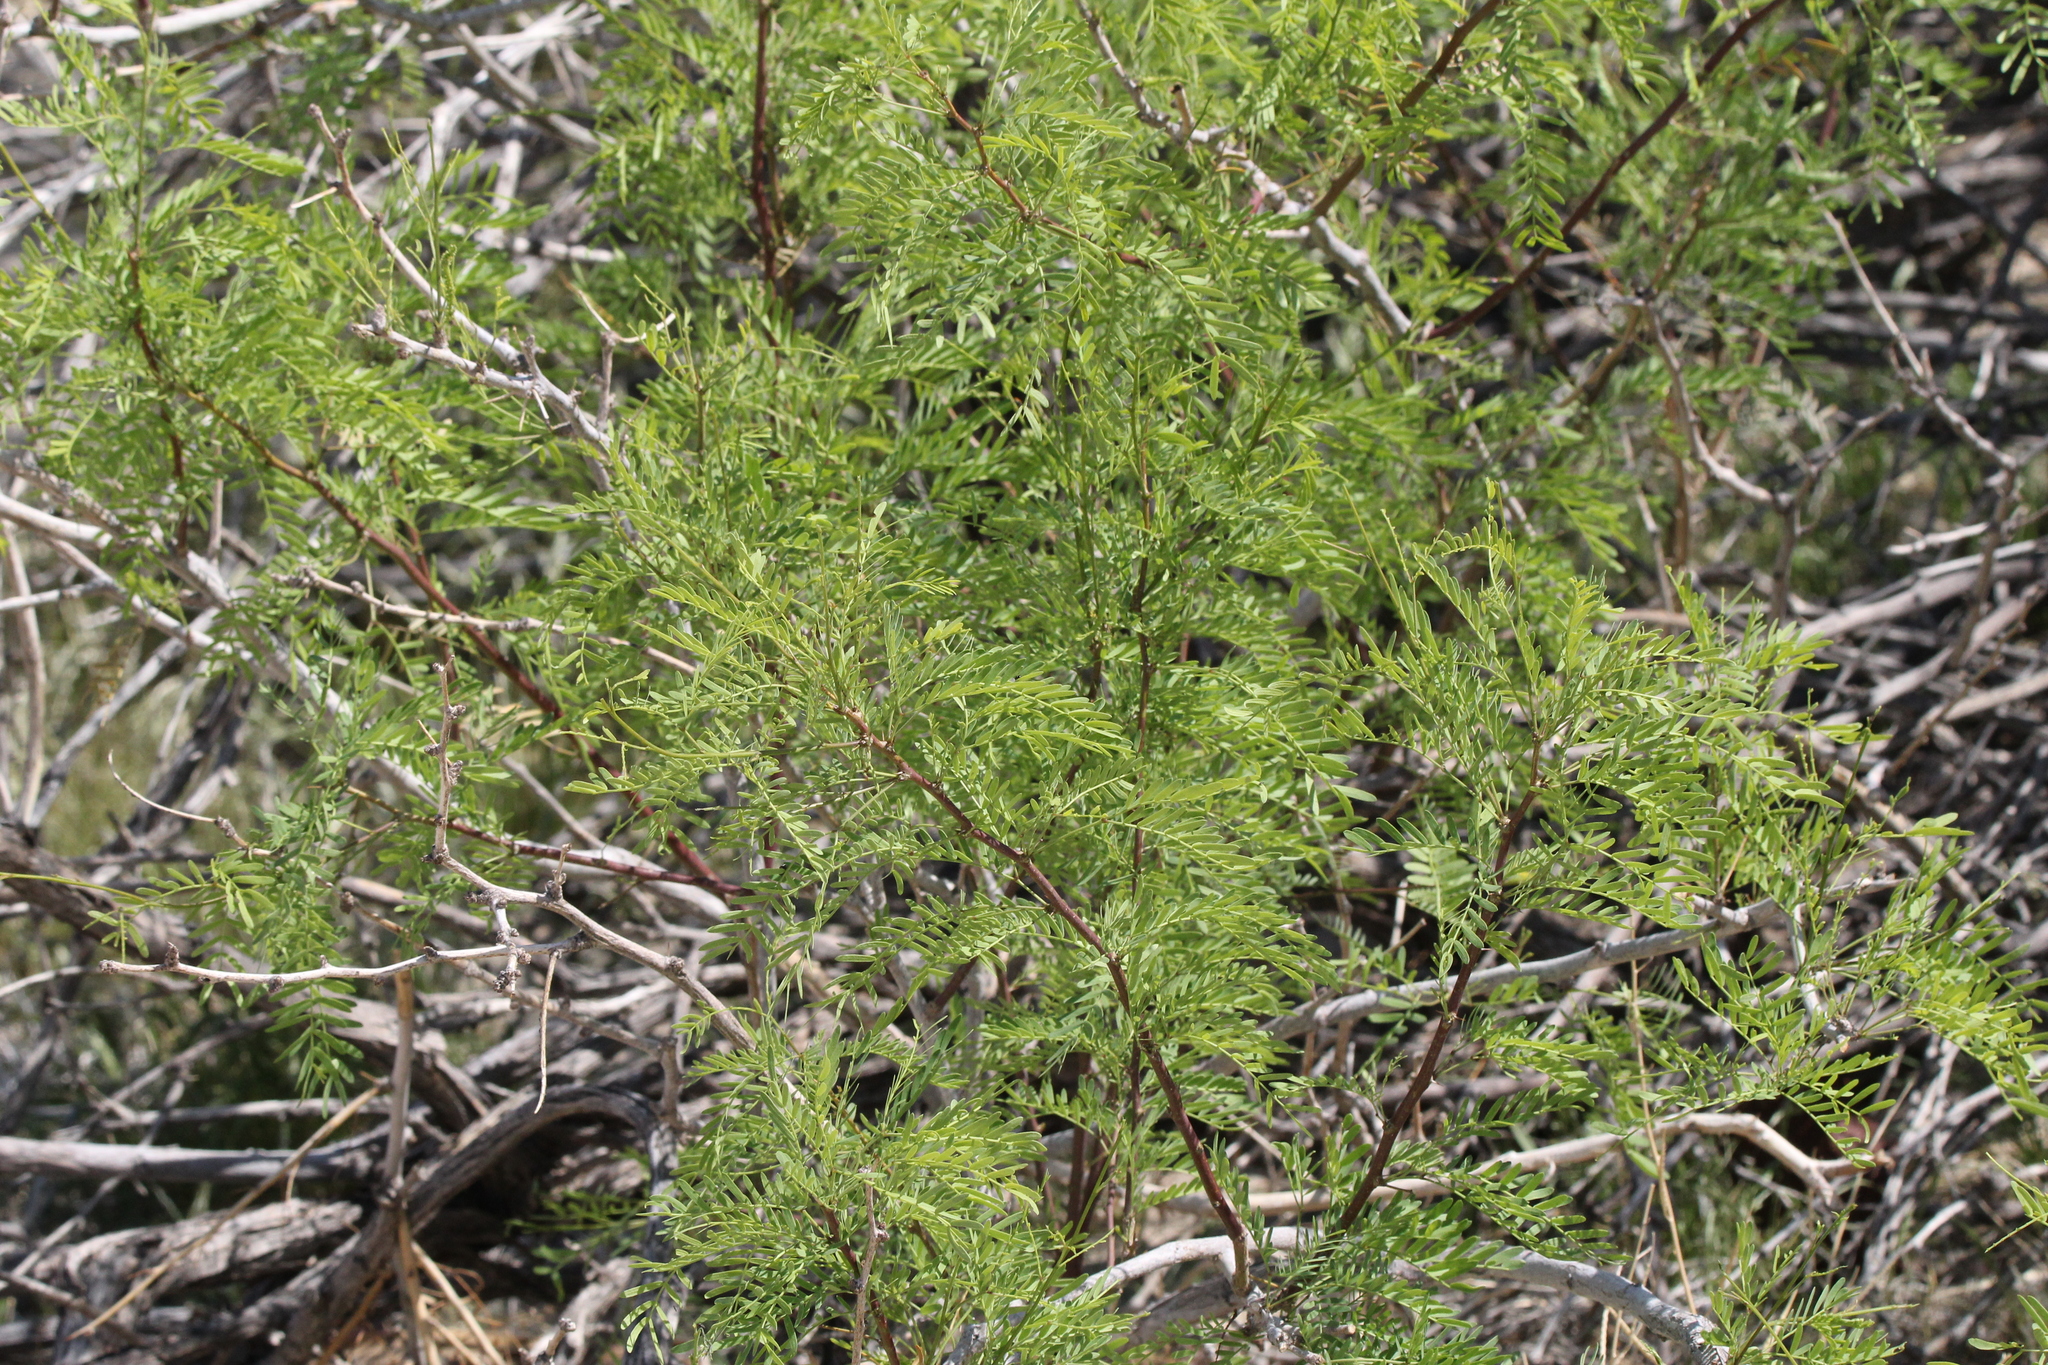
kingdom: Plantae
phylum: Tracheophyta
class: Magnoliopsida
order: Fabales
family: Fabaceae
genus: Prosopis
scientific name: Prosopis pubescens
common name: Screw-bean
